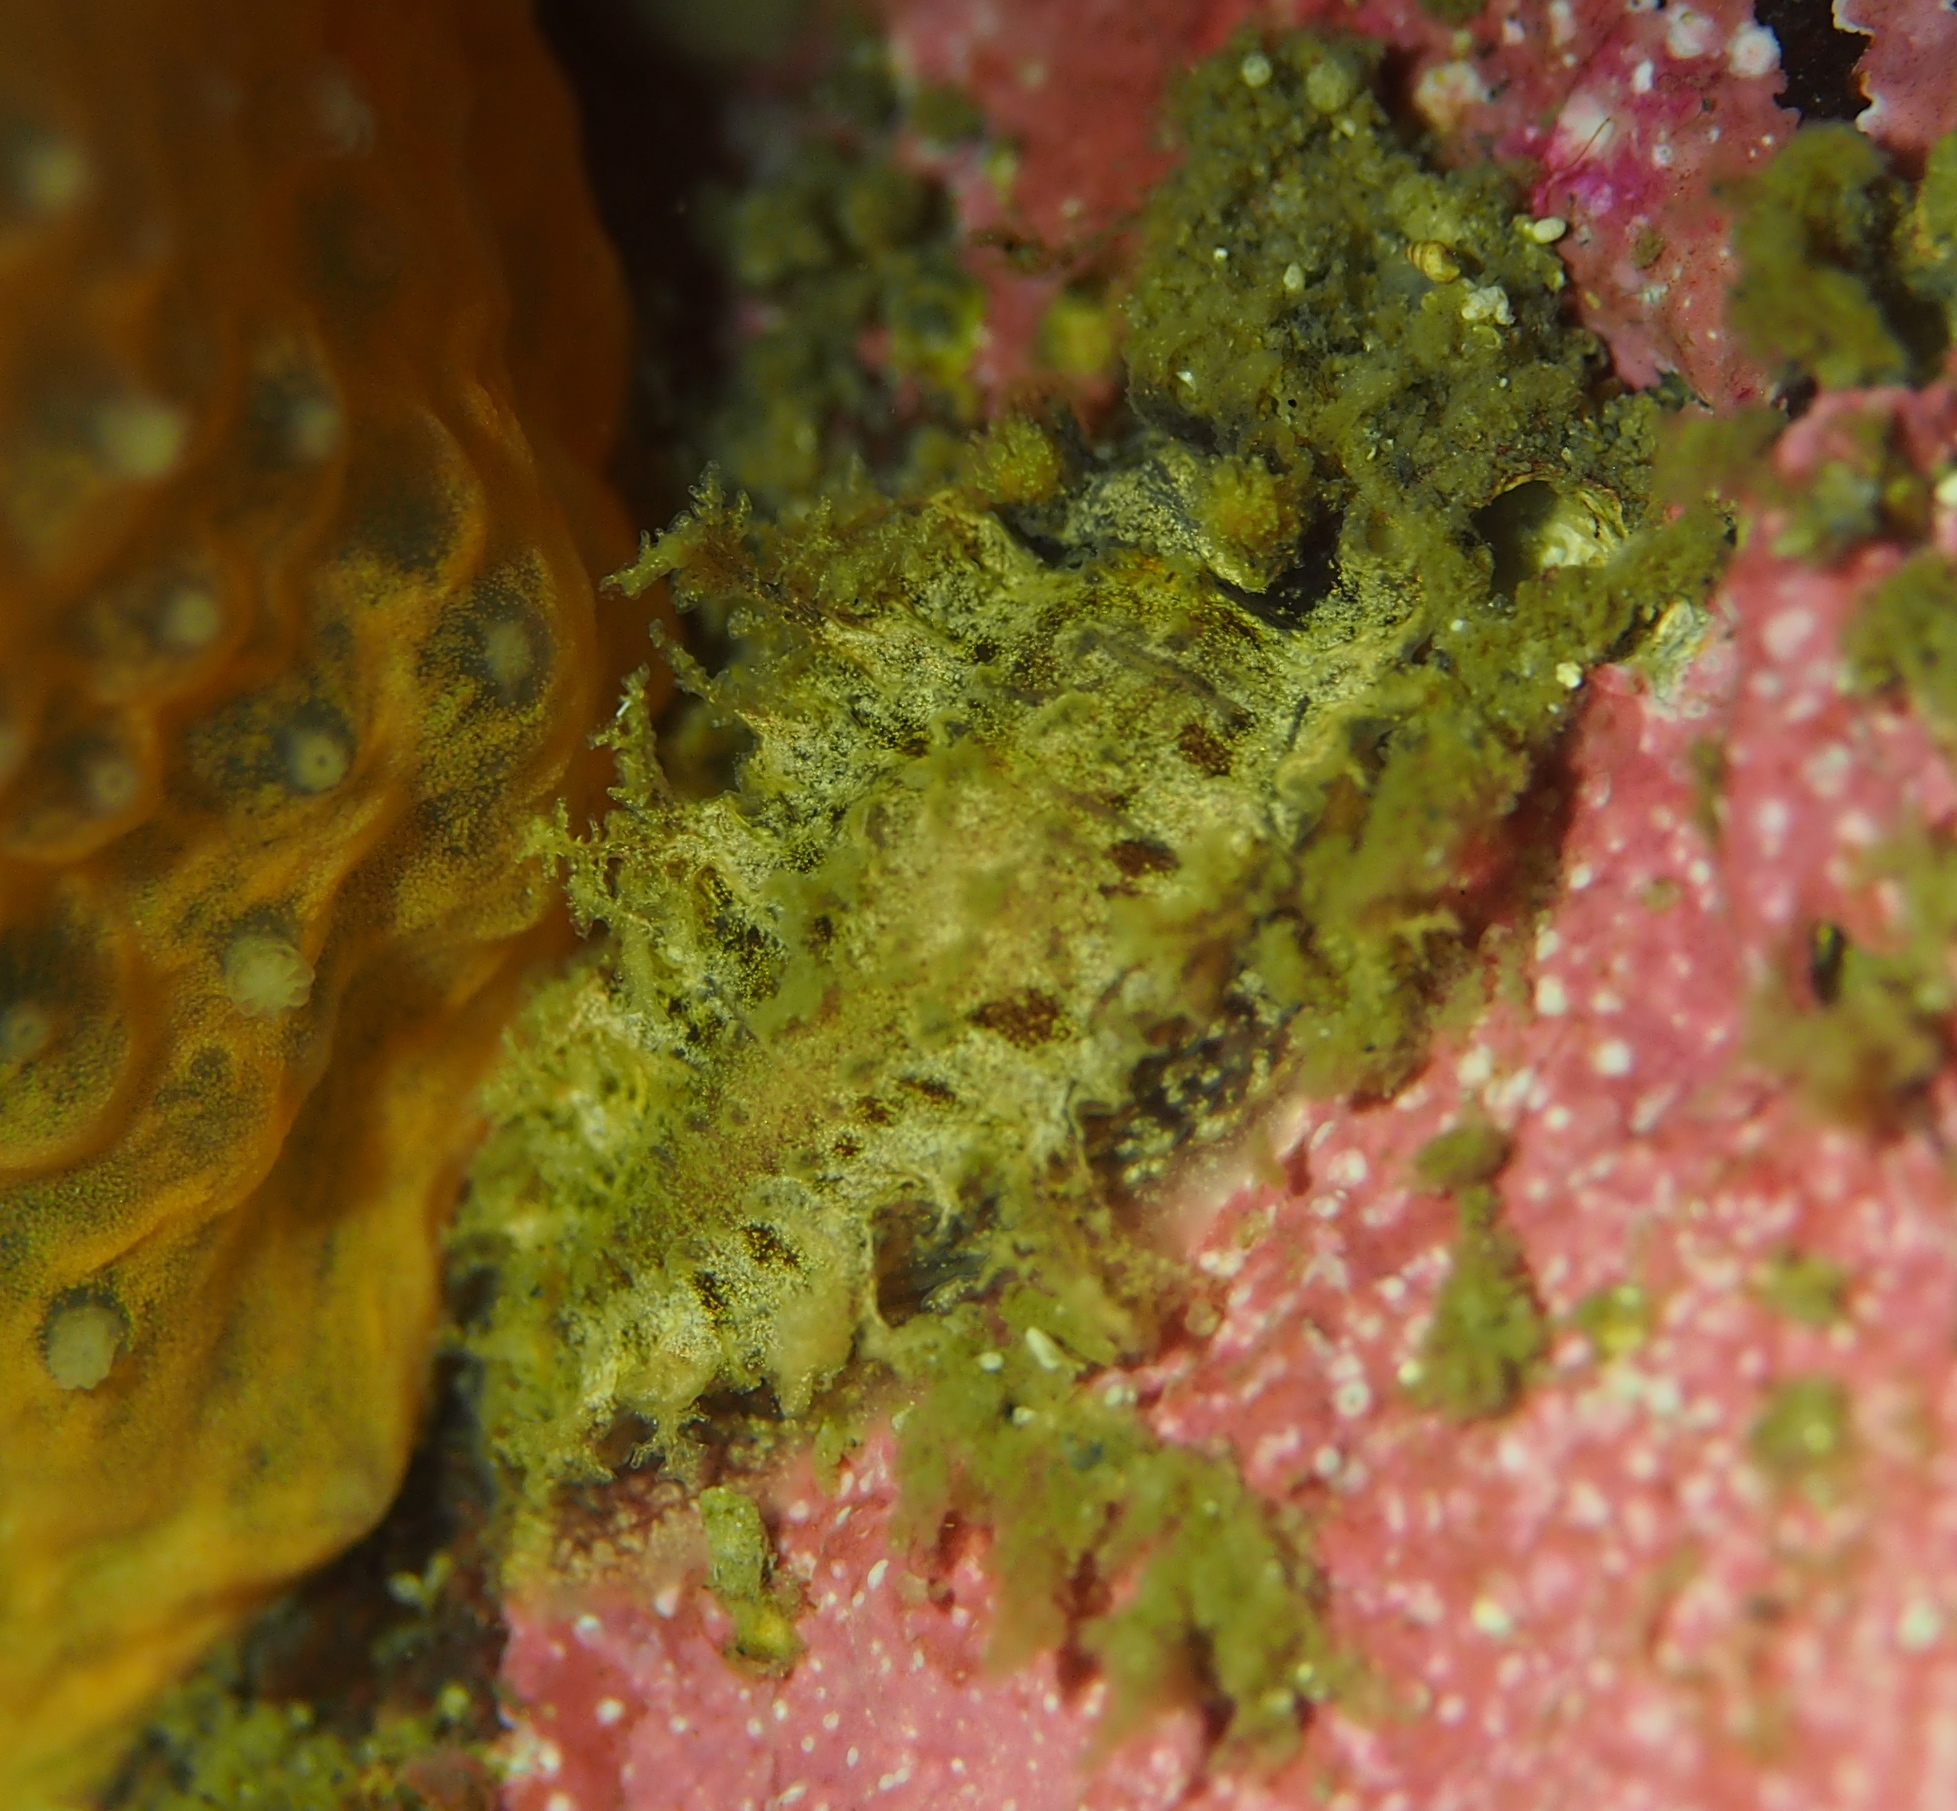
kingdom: Animalia
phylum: Mollusca
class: Gastropoda
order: Nudibranchia
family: Tritoniidae
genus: Duvaucelia
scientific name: Duvaucelia plebeia
